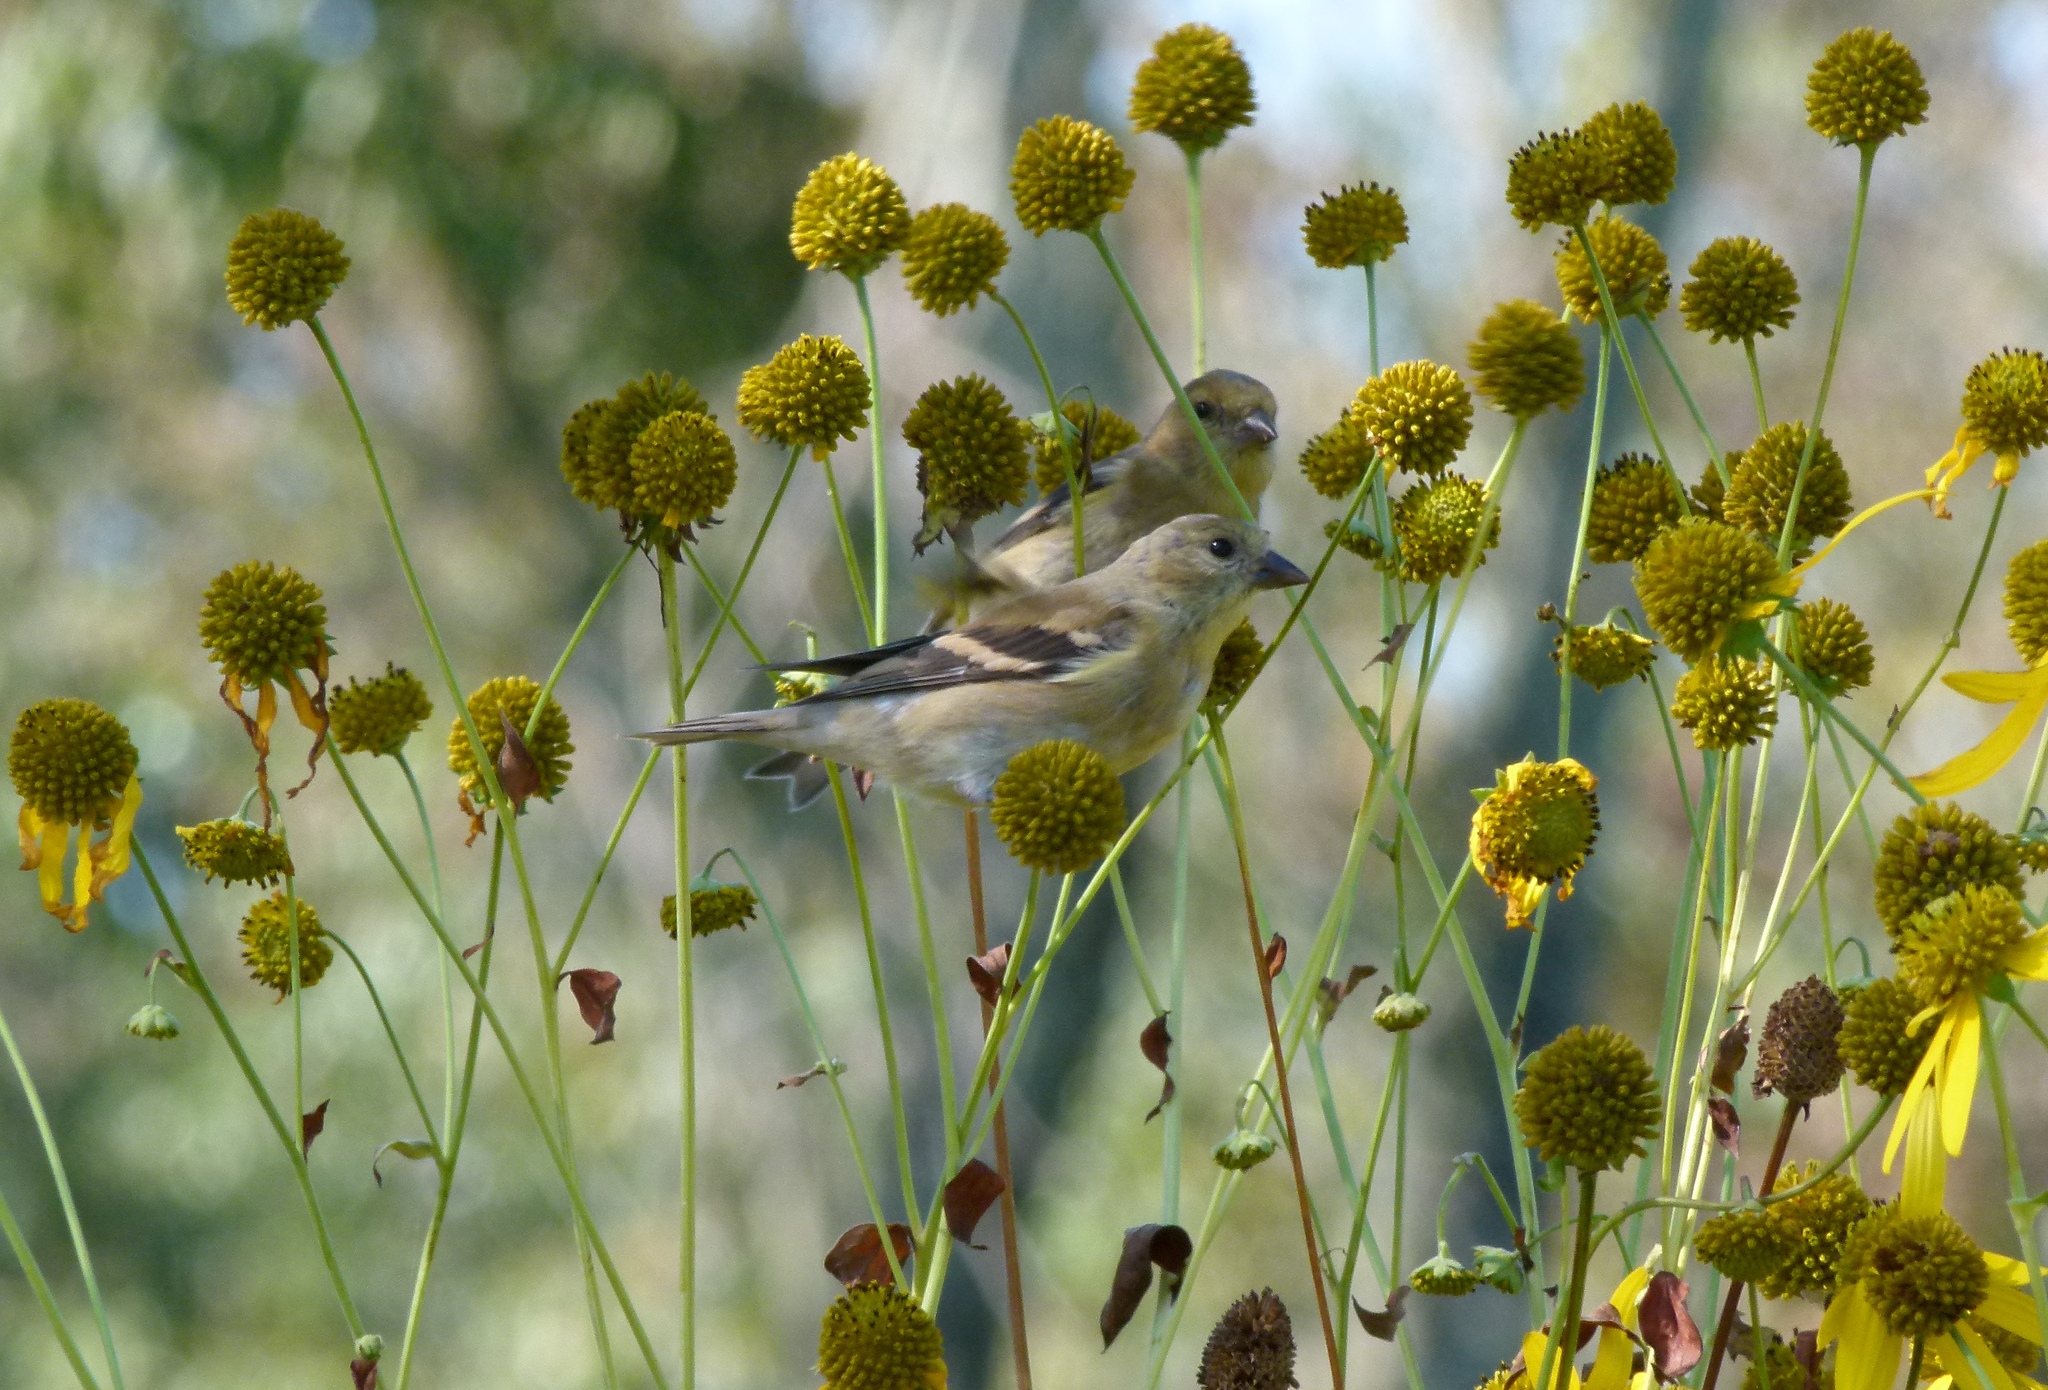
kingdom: Animalia
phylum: Chordata
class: Aves
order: Passeriformes
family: Fringillidae
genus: Spinus
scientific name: Spinus tristis
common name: American goldfinch
